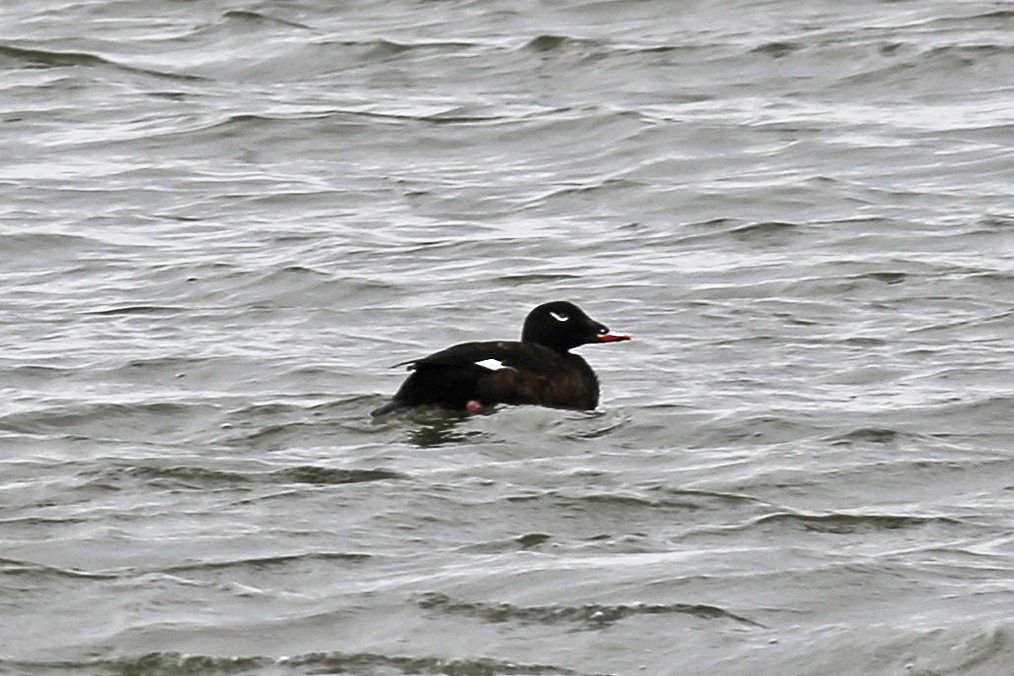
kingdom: Animalia
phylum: Chordata
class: Aves
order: Anseriformes
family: Anatidae
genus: Melanitta
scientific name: Melanitta deglandi
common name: White-winged scoter
